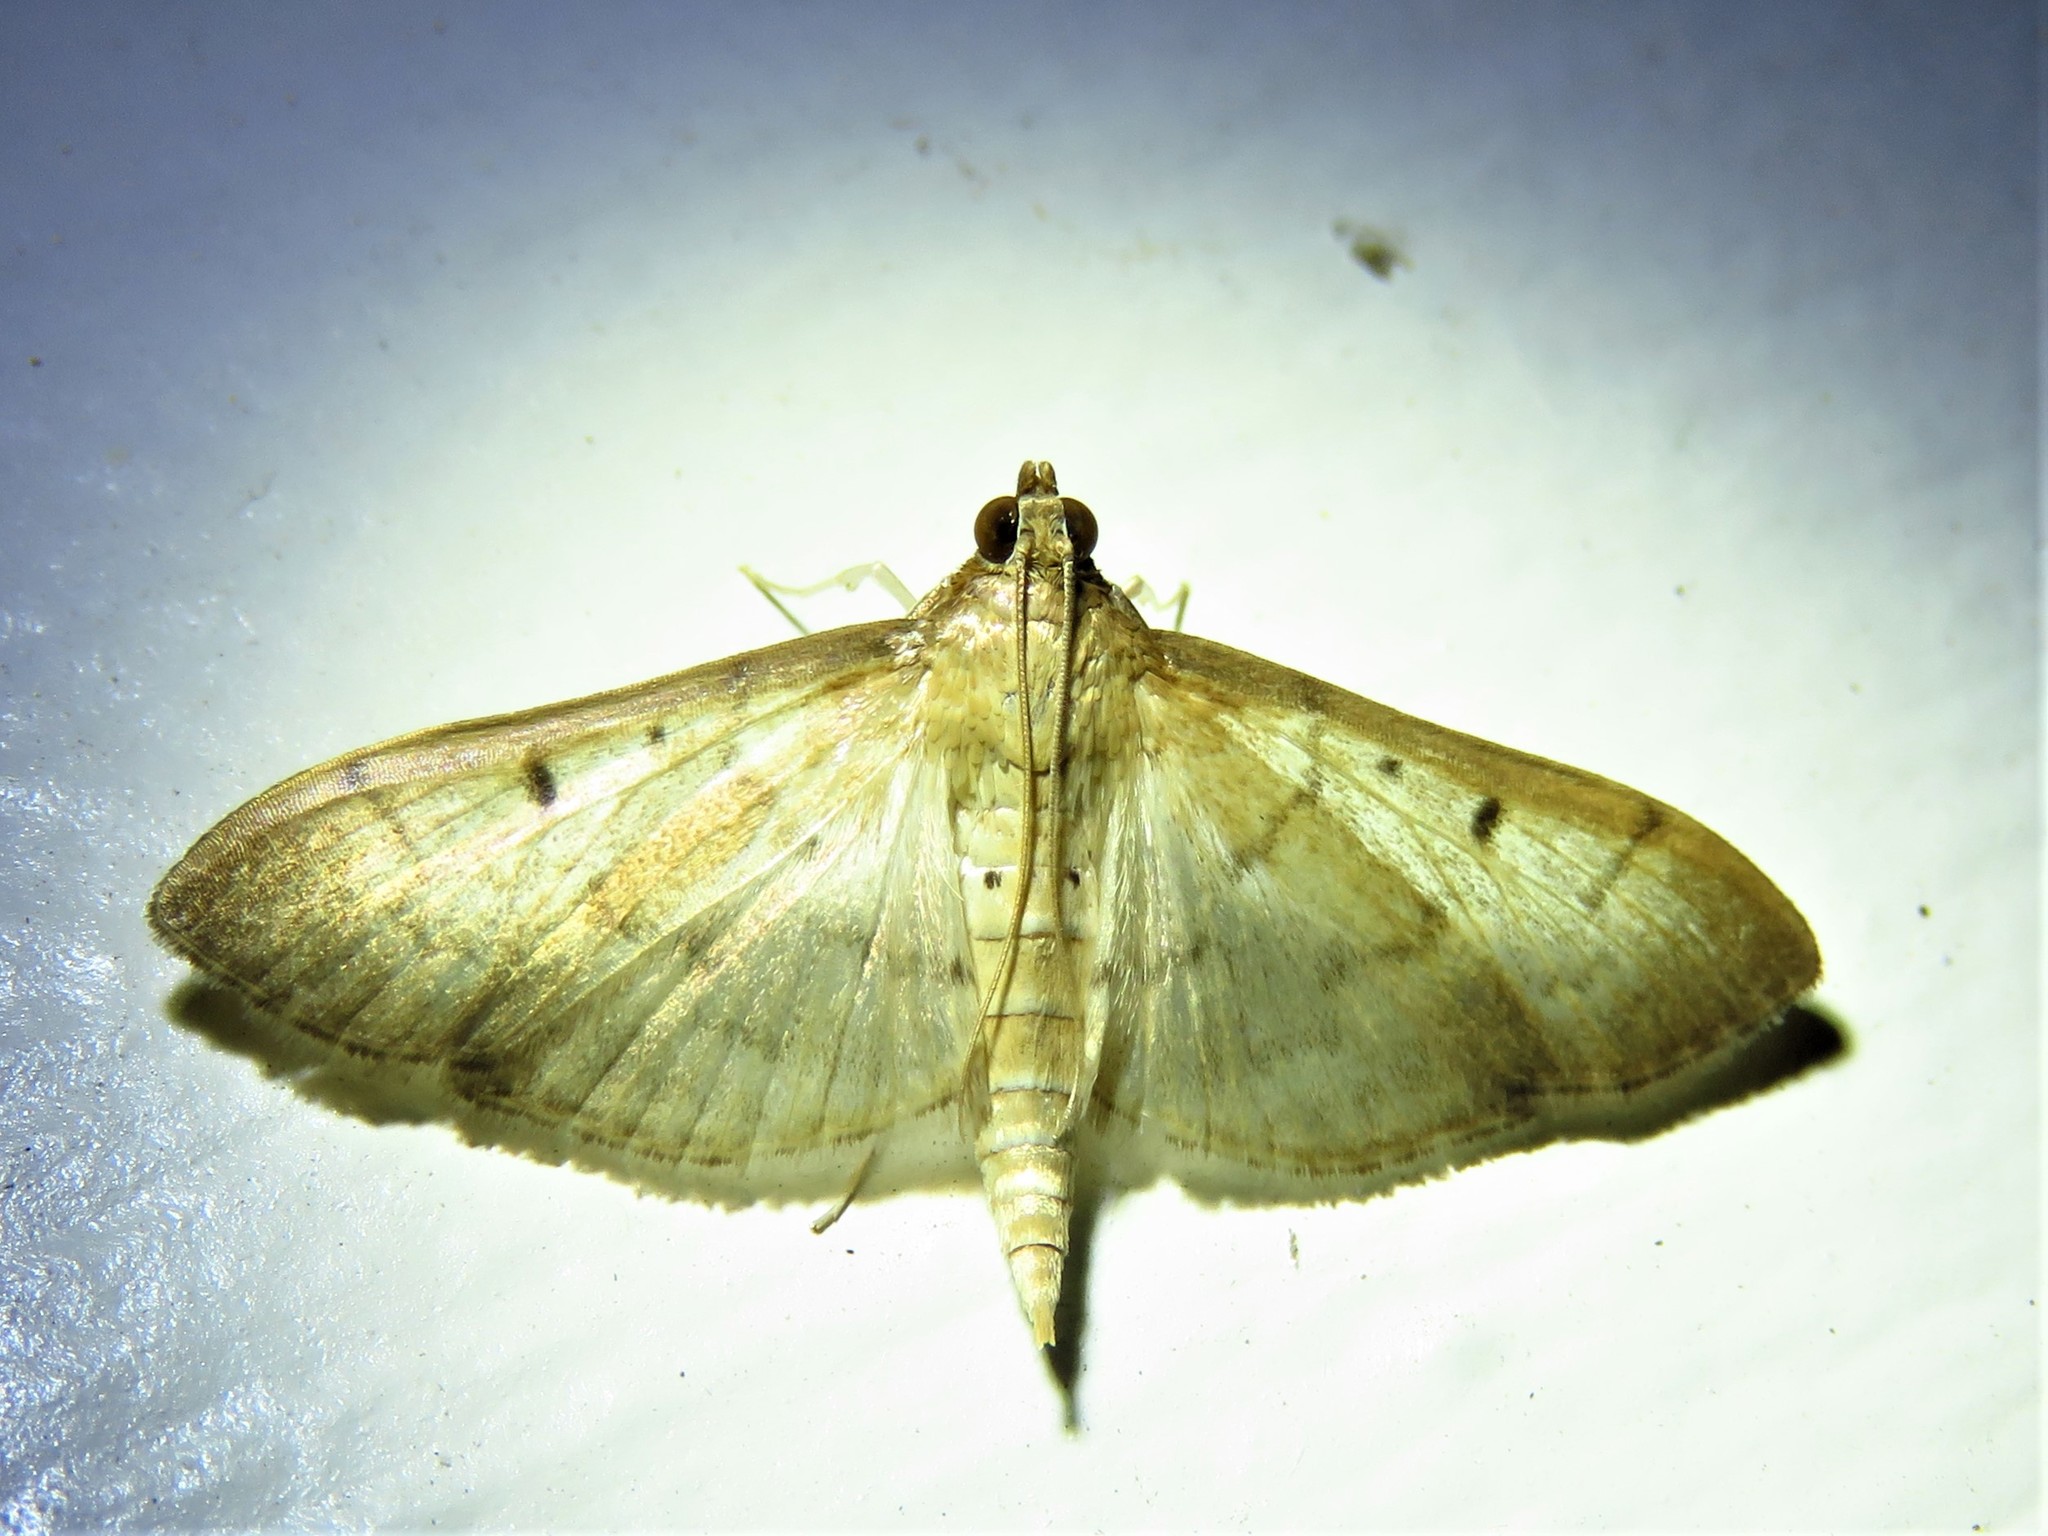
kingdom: Animalia
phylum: Arthropoda
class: Insecta
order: Lepidoptera
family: Crambidae
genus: Herpetogramma
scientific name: Herpetogramma bipunctalis
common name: Southern beet webworm
